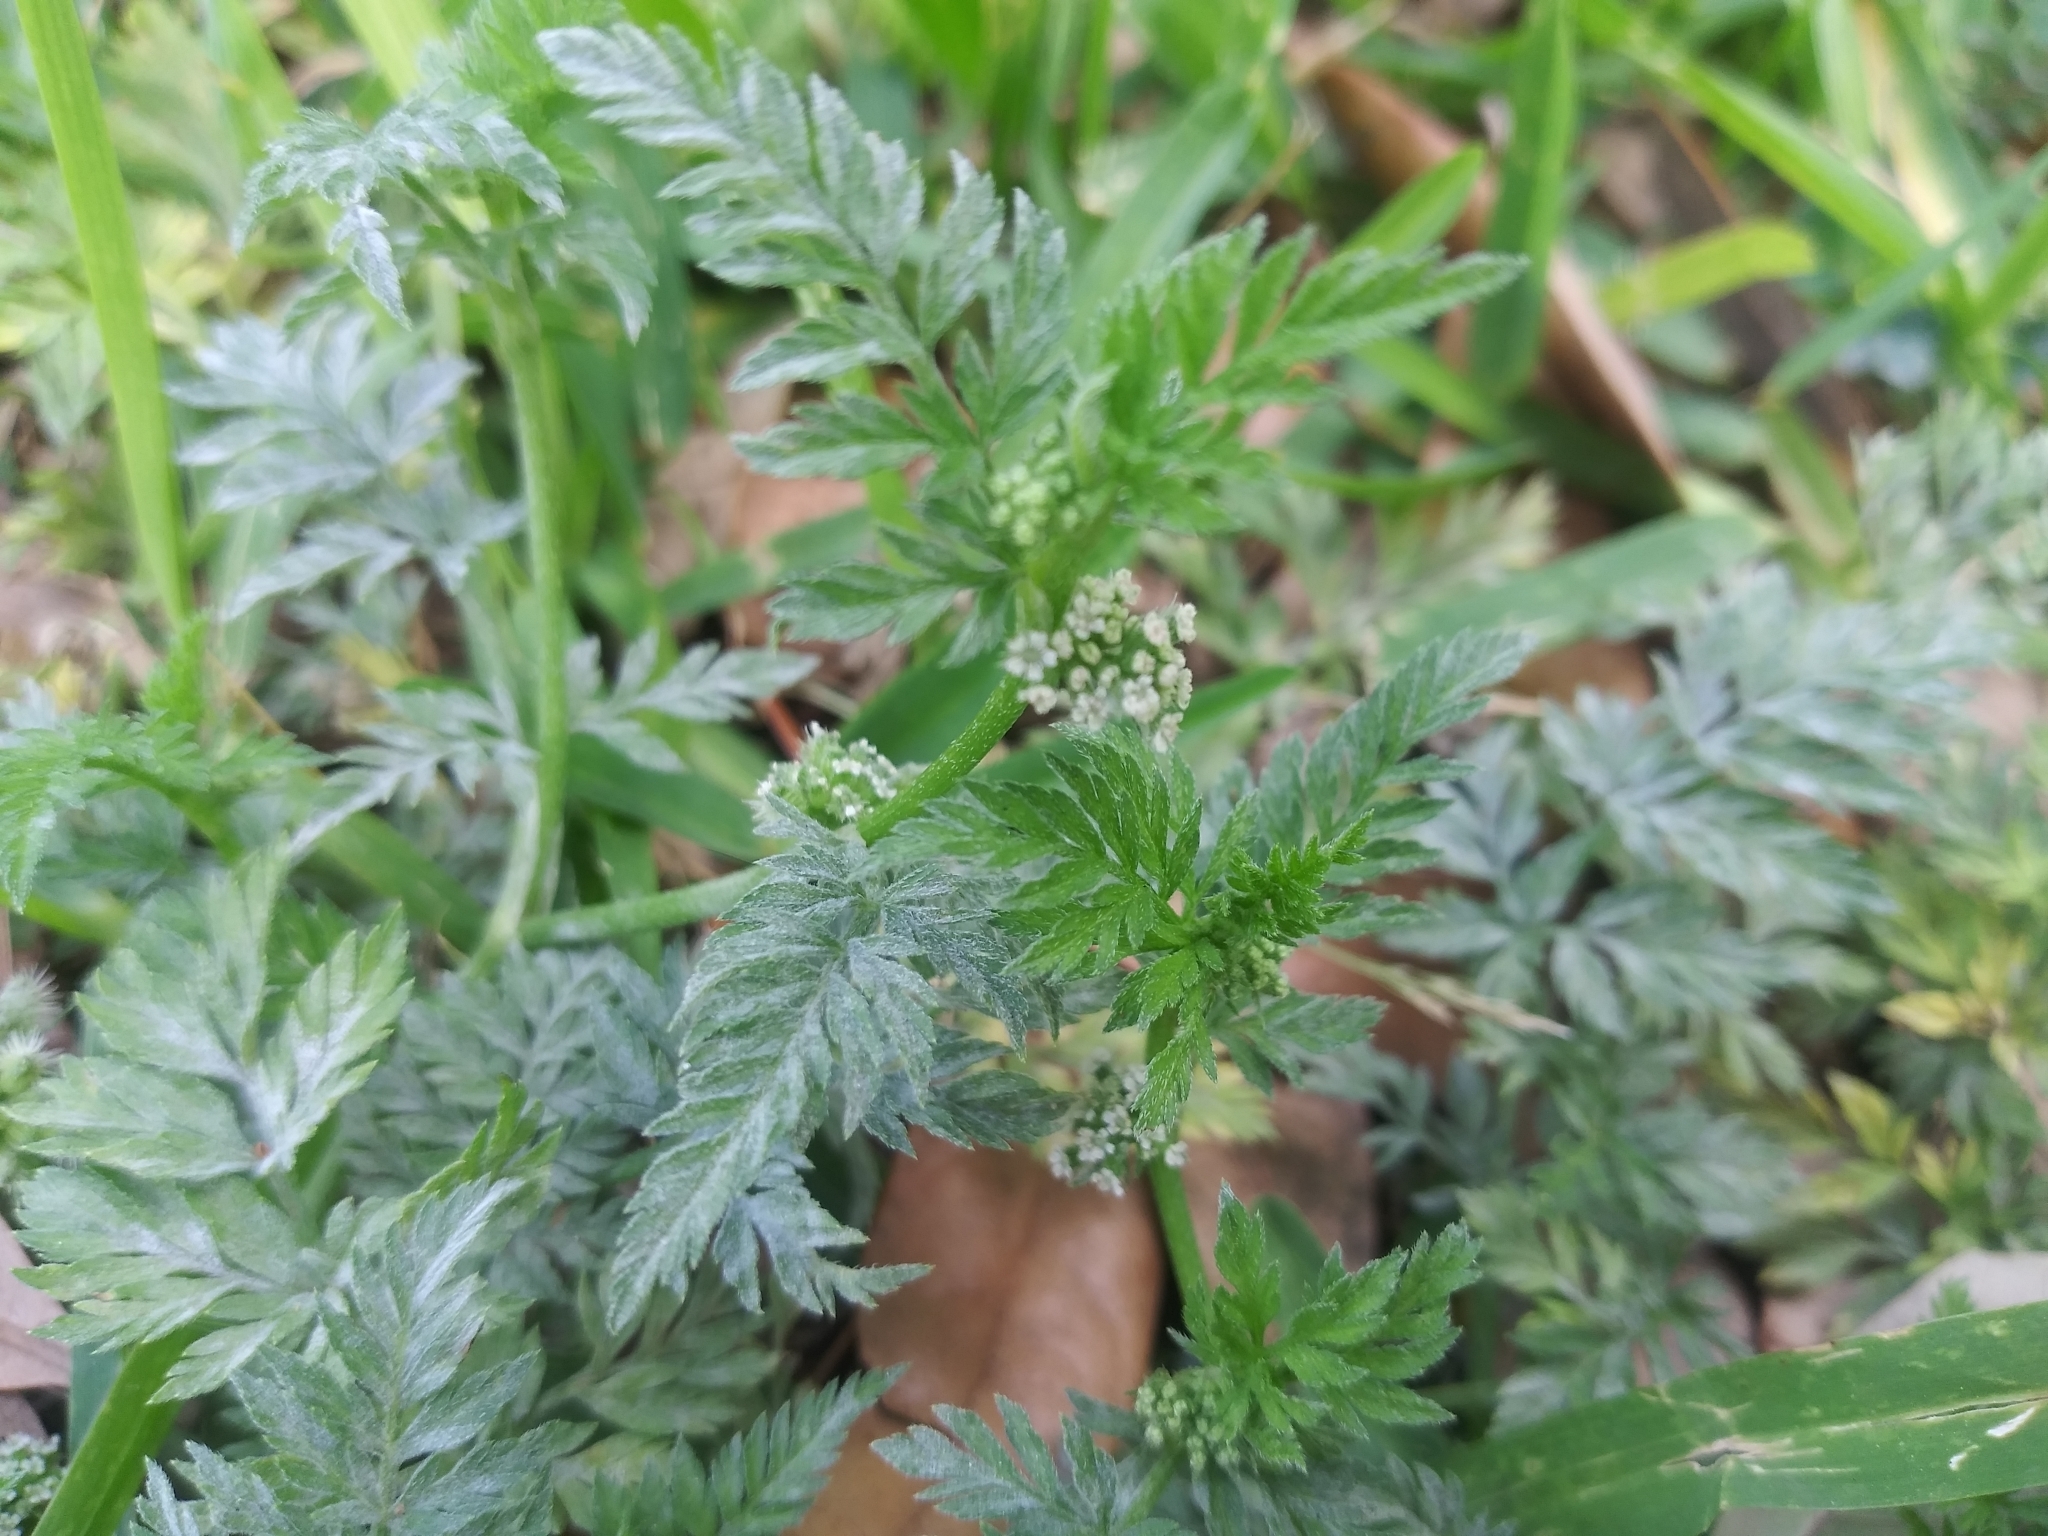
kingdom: Plantae
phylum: Tracheophyta
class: Magnoliopsida
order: Apiales
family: Apiaceae
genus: Torilis
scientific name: Torilis nodosa
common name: Knotted hedge-parsley
